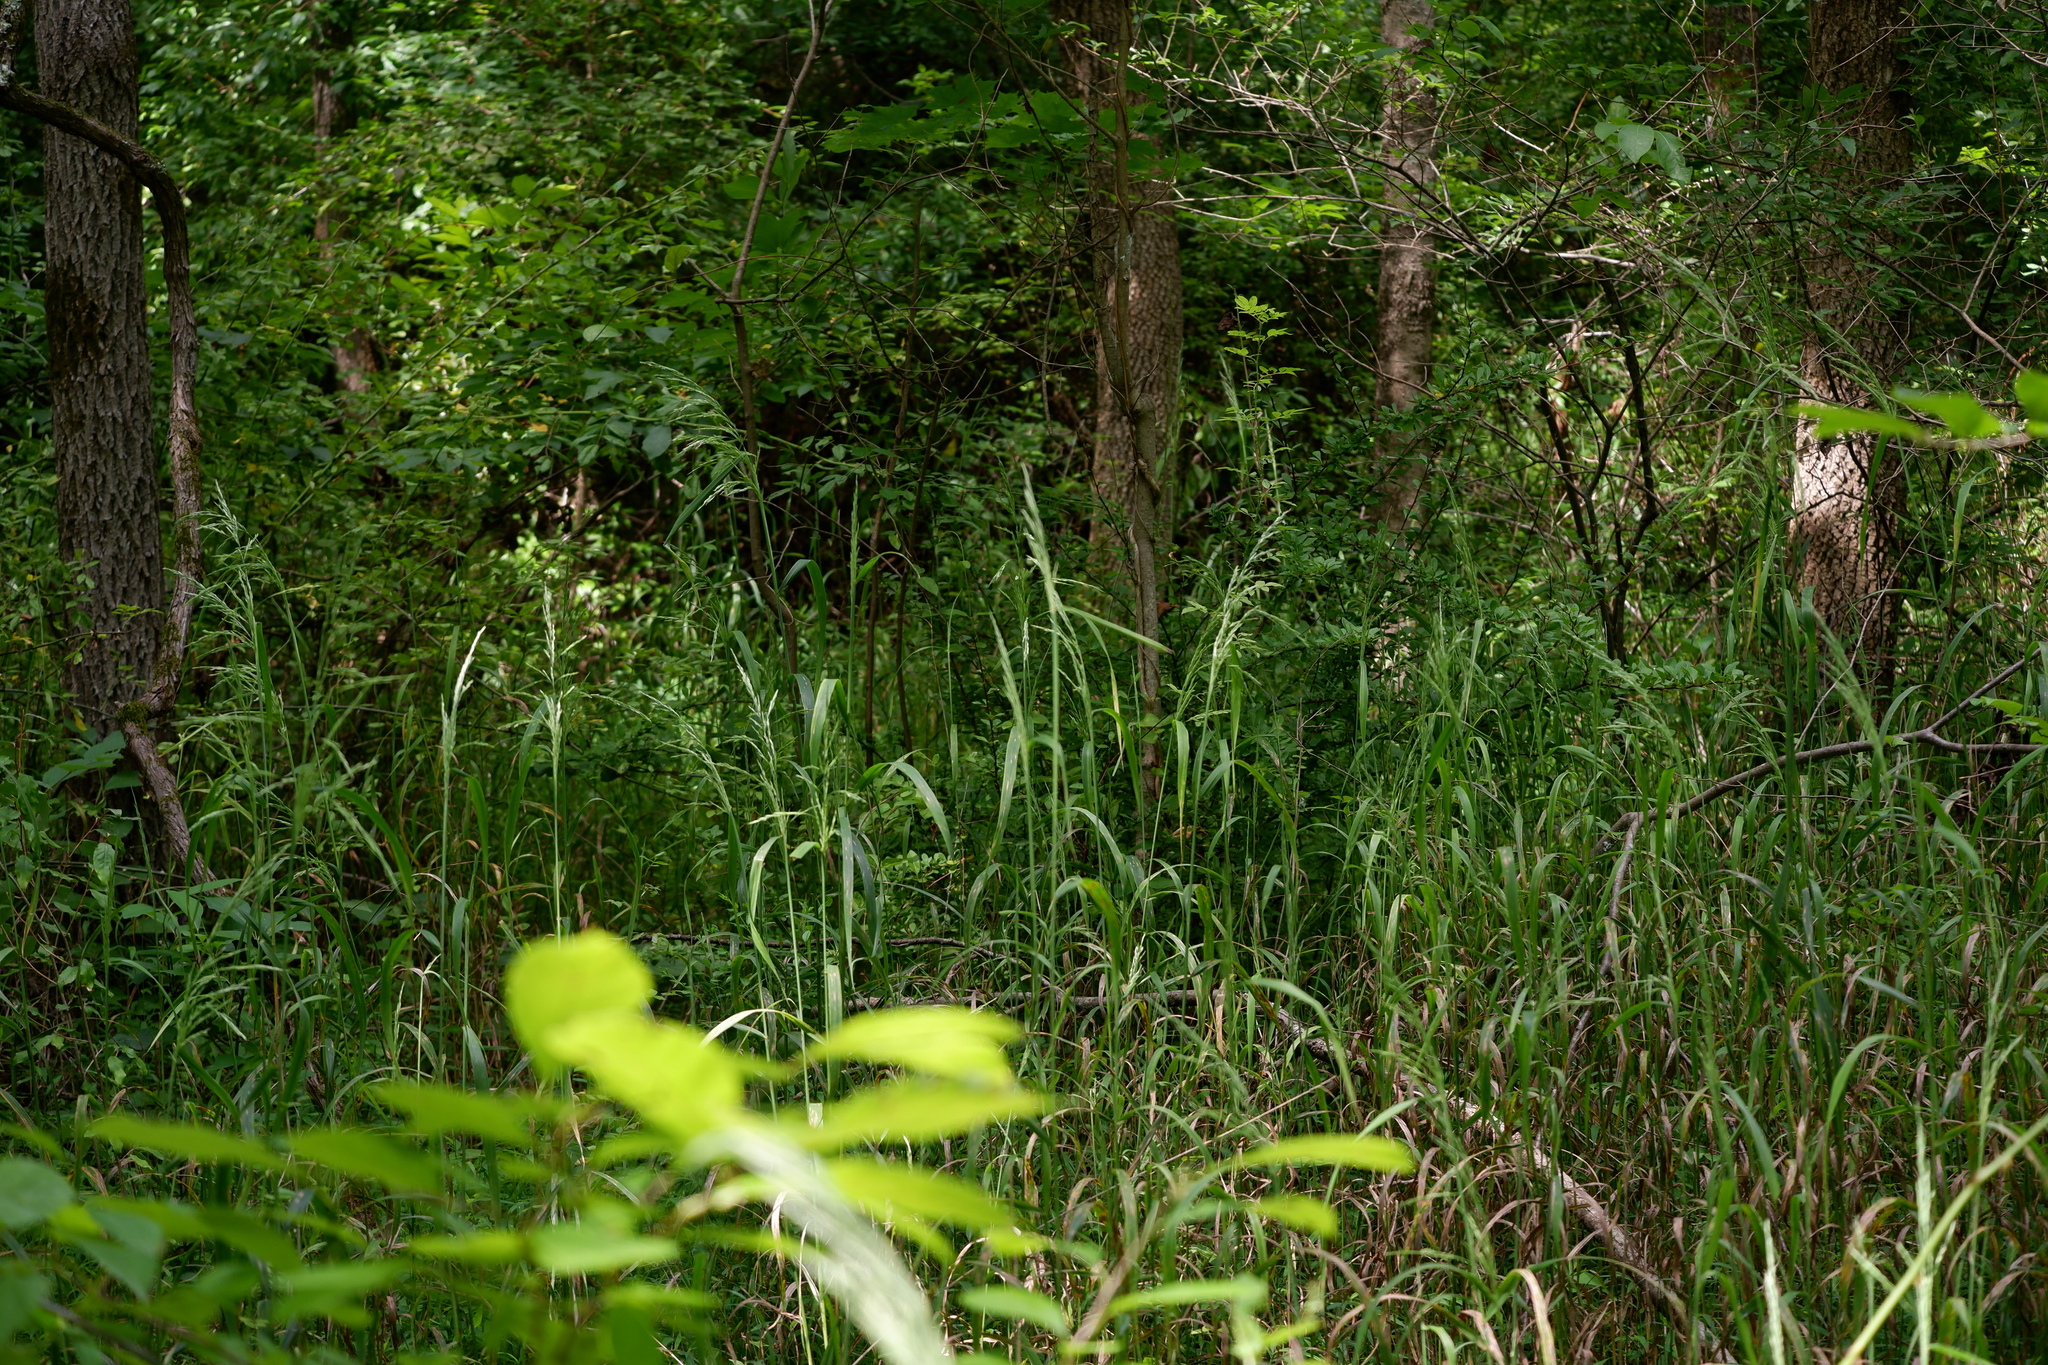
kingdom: Plantae
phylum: Tracheophyta
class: Liliopsida
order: Poales
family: Poaceae
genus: Cinna
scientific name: Cinna arundinacea
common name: Stout woodreed
